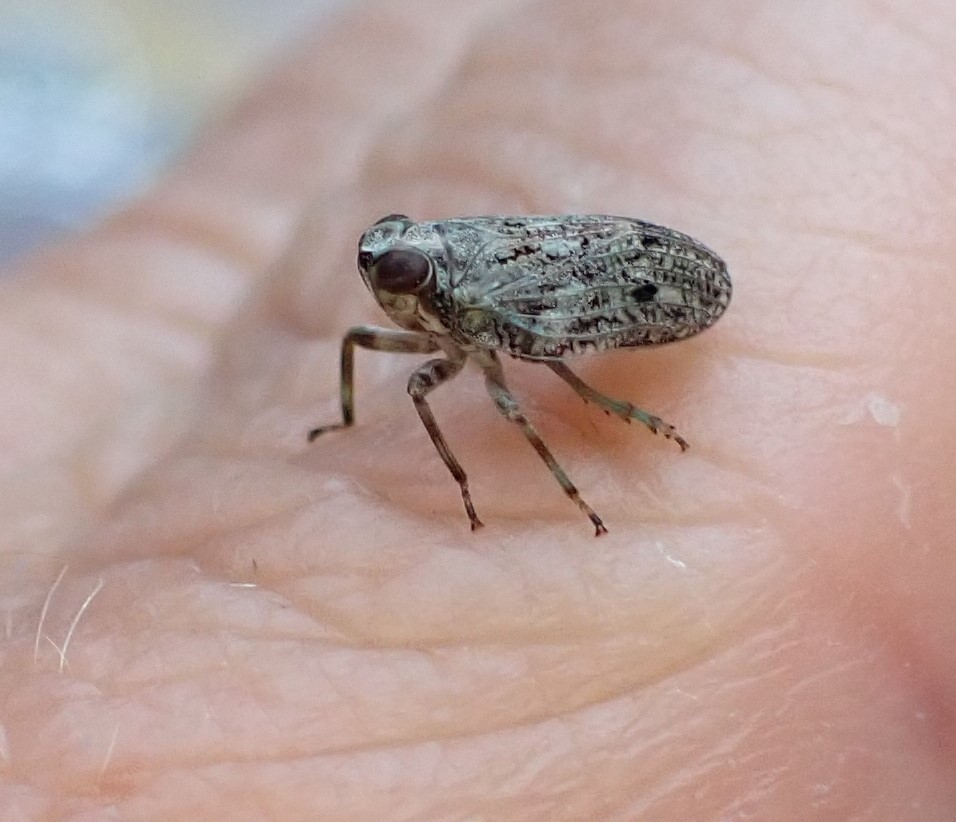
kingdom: Animalia
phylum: Arthropoda
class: Insecta
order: Hemiptera
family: Issidae
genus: Issus
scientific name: Issus coleoptratus
